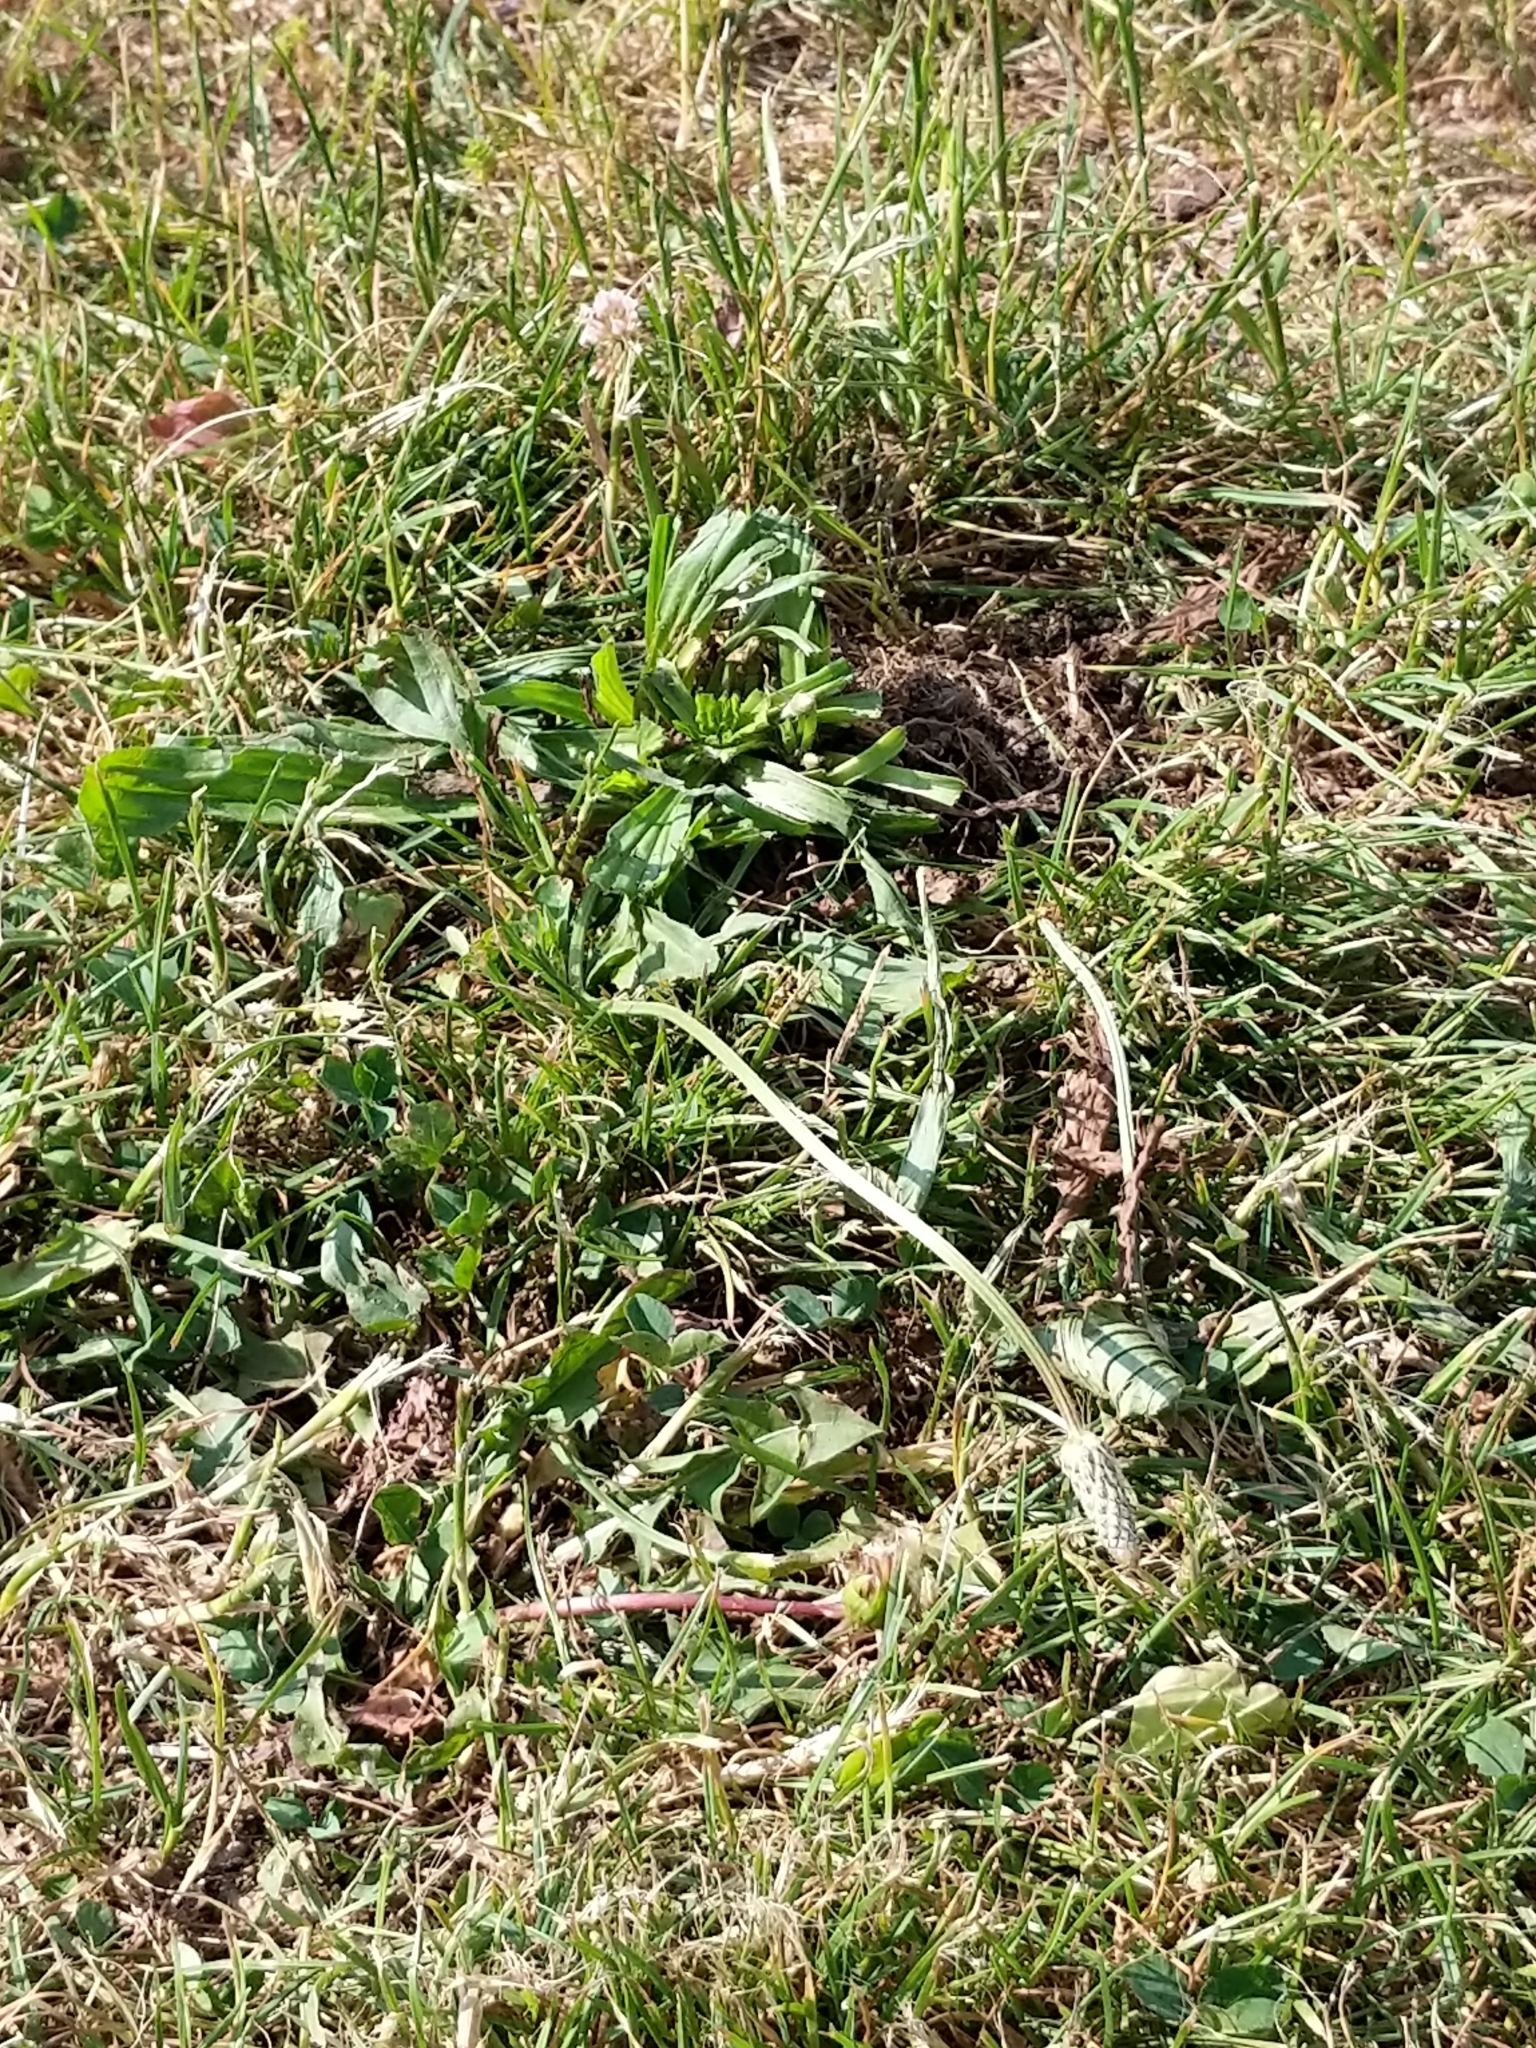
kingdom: Plantae
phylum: Tracheophyta
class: Magnoliopsida
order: Lamiales
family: Plantaginaceae
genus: Plantago
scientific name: Plantago lanceolata
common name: Ribwort plantain
